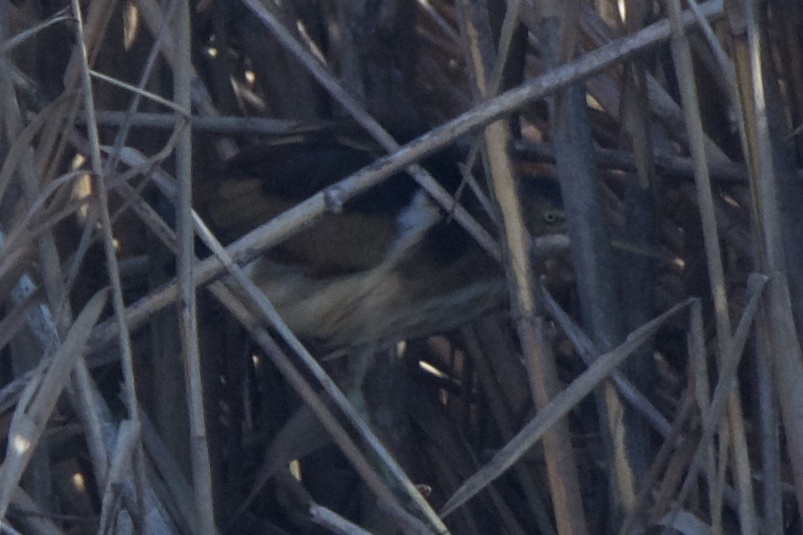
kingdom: Animalia
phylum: Chordata
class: Aves
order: Pelecaniformes
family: Ardeidae
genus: Ixobrychus
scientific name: Ixobrychus exilis
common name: Least bittern
